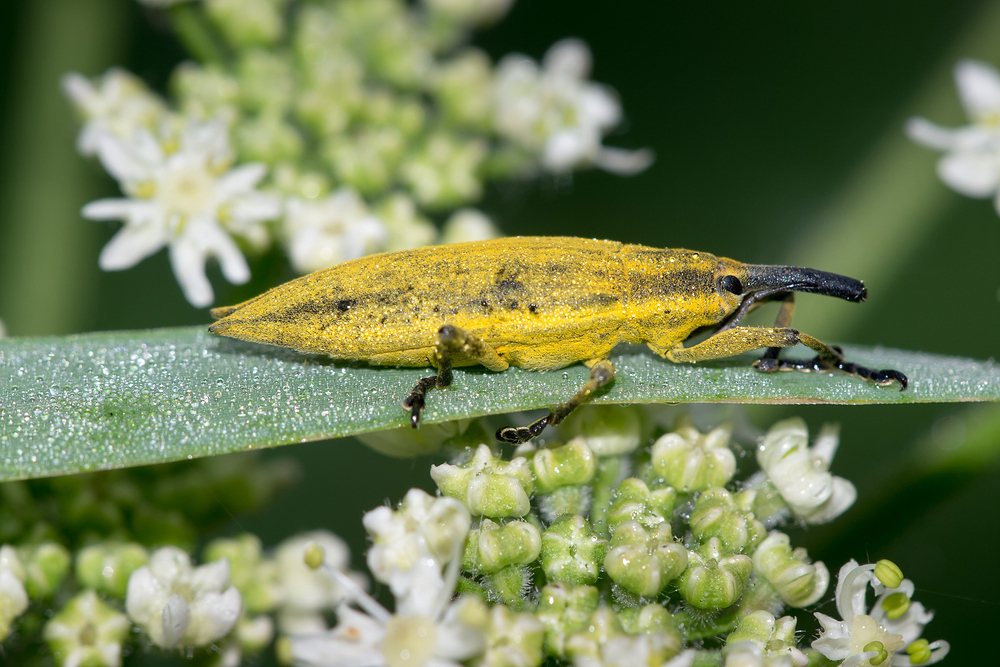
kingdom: Animalia
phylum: Arthropoda
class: Insecta
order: Coleoptera
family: Curculionidae
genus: Lixus
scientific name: Lixus iridis
